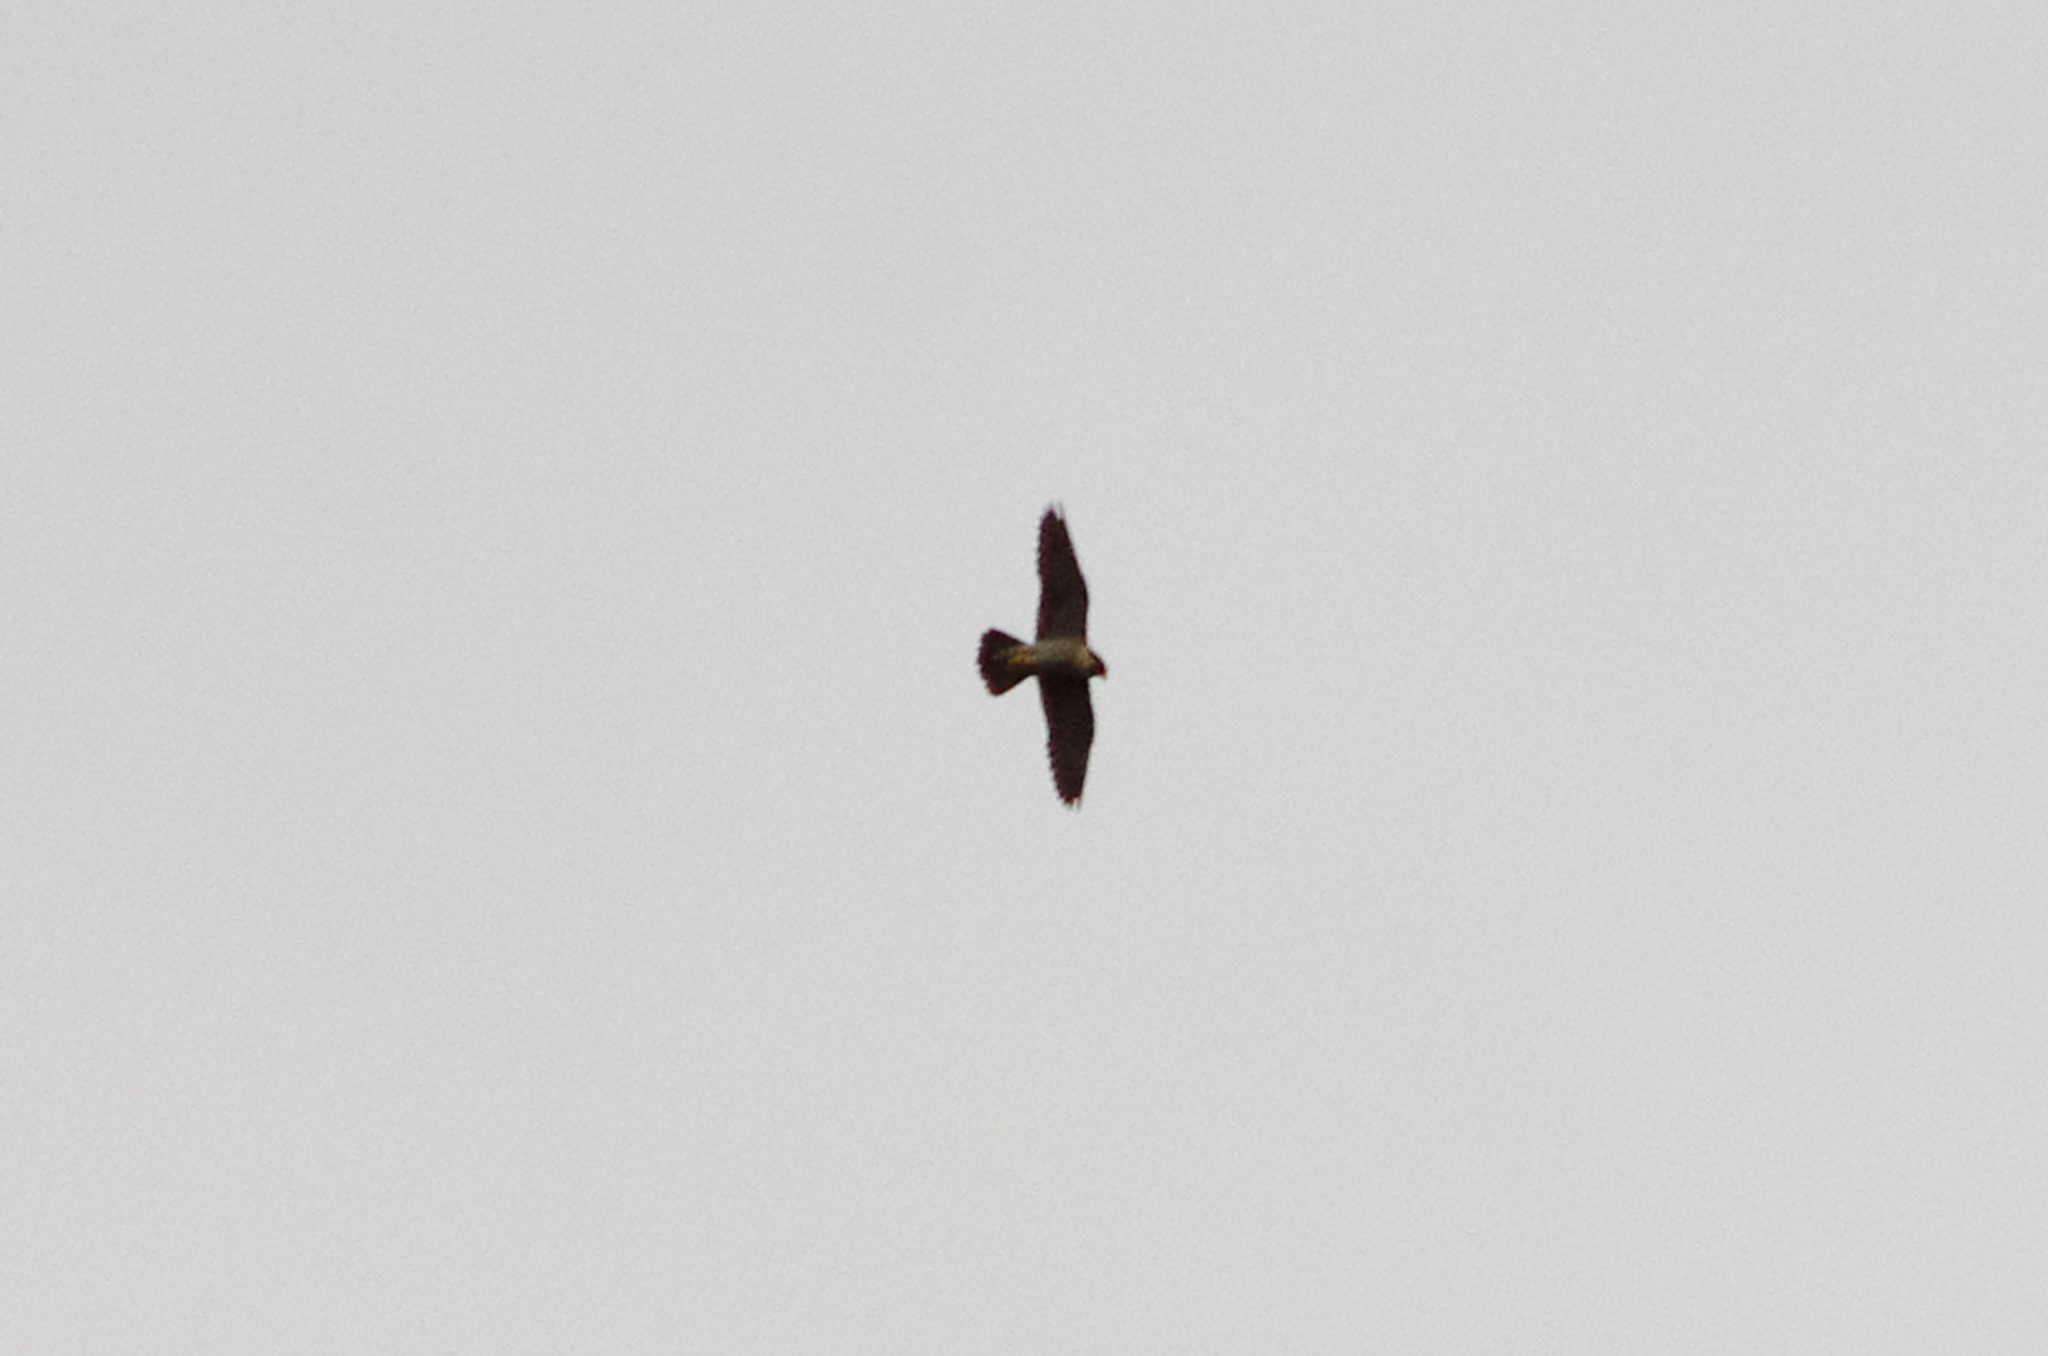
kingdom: Animalia
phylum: Chordata
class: Aves
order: Falconiformes
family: Falconidae
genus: Falco
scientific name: Falco peregrinus
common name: Peregrine falcon
